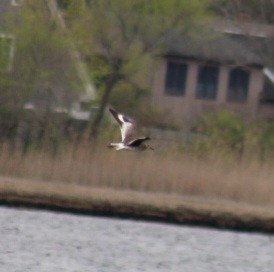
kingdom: Animalia
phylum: Chordata
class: Aves
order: Charadriiformes
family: Scolopacidae
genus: Tringa
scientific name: Tringa semipalmata
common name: Willet
